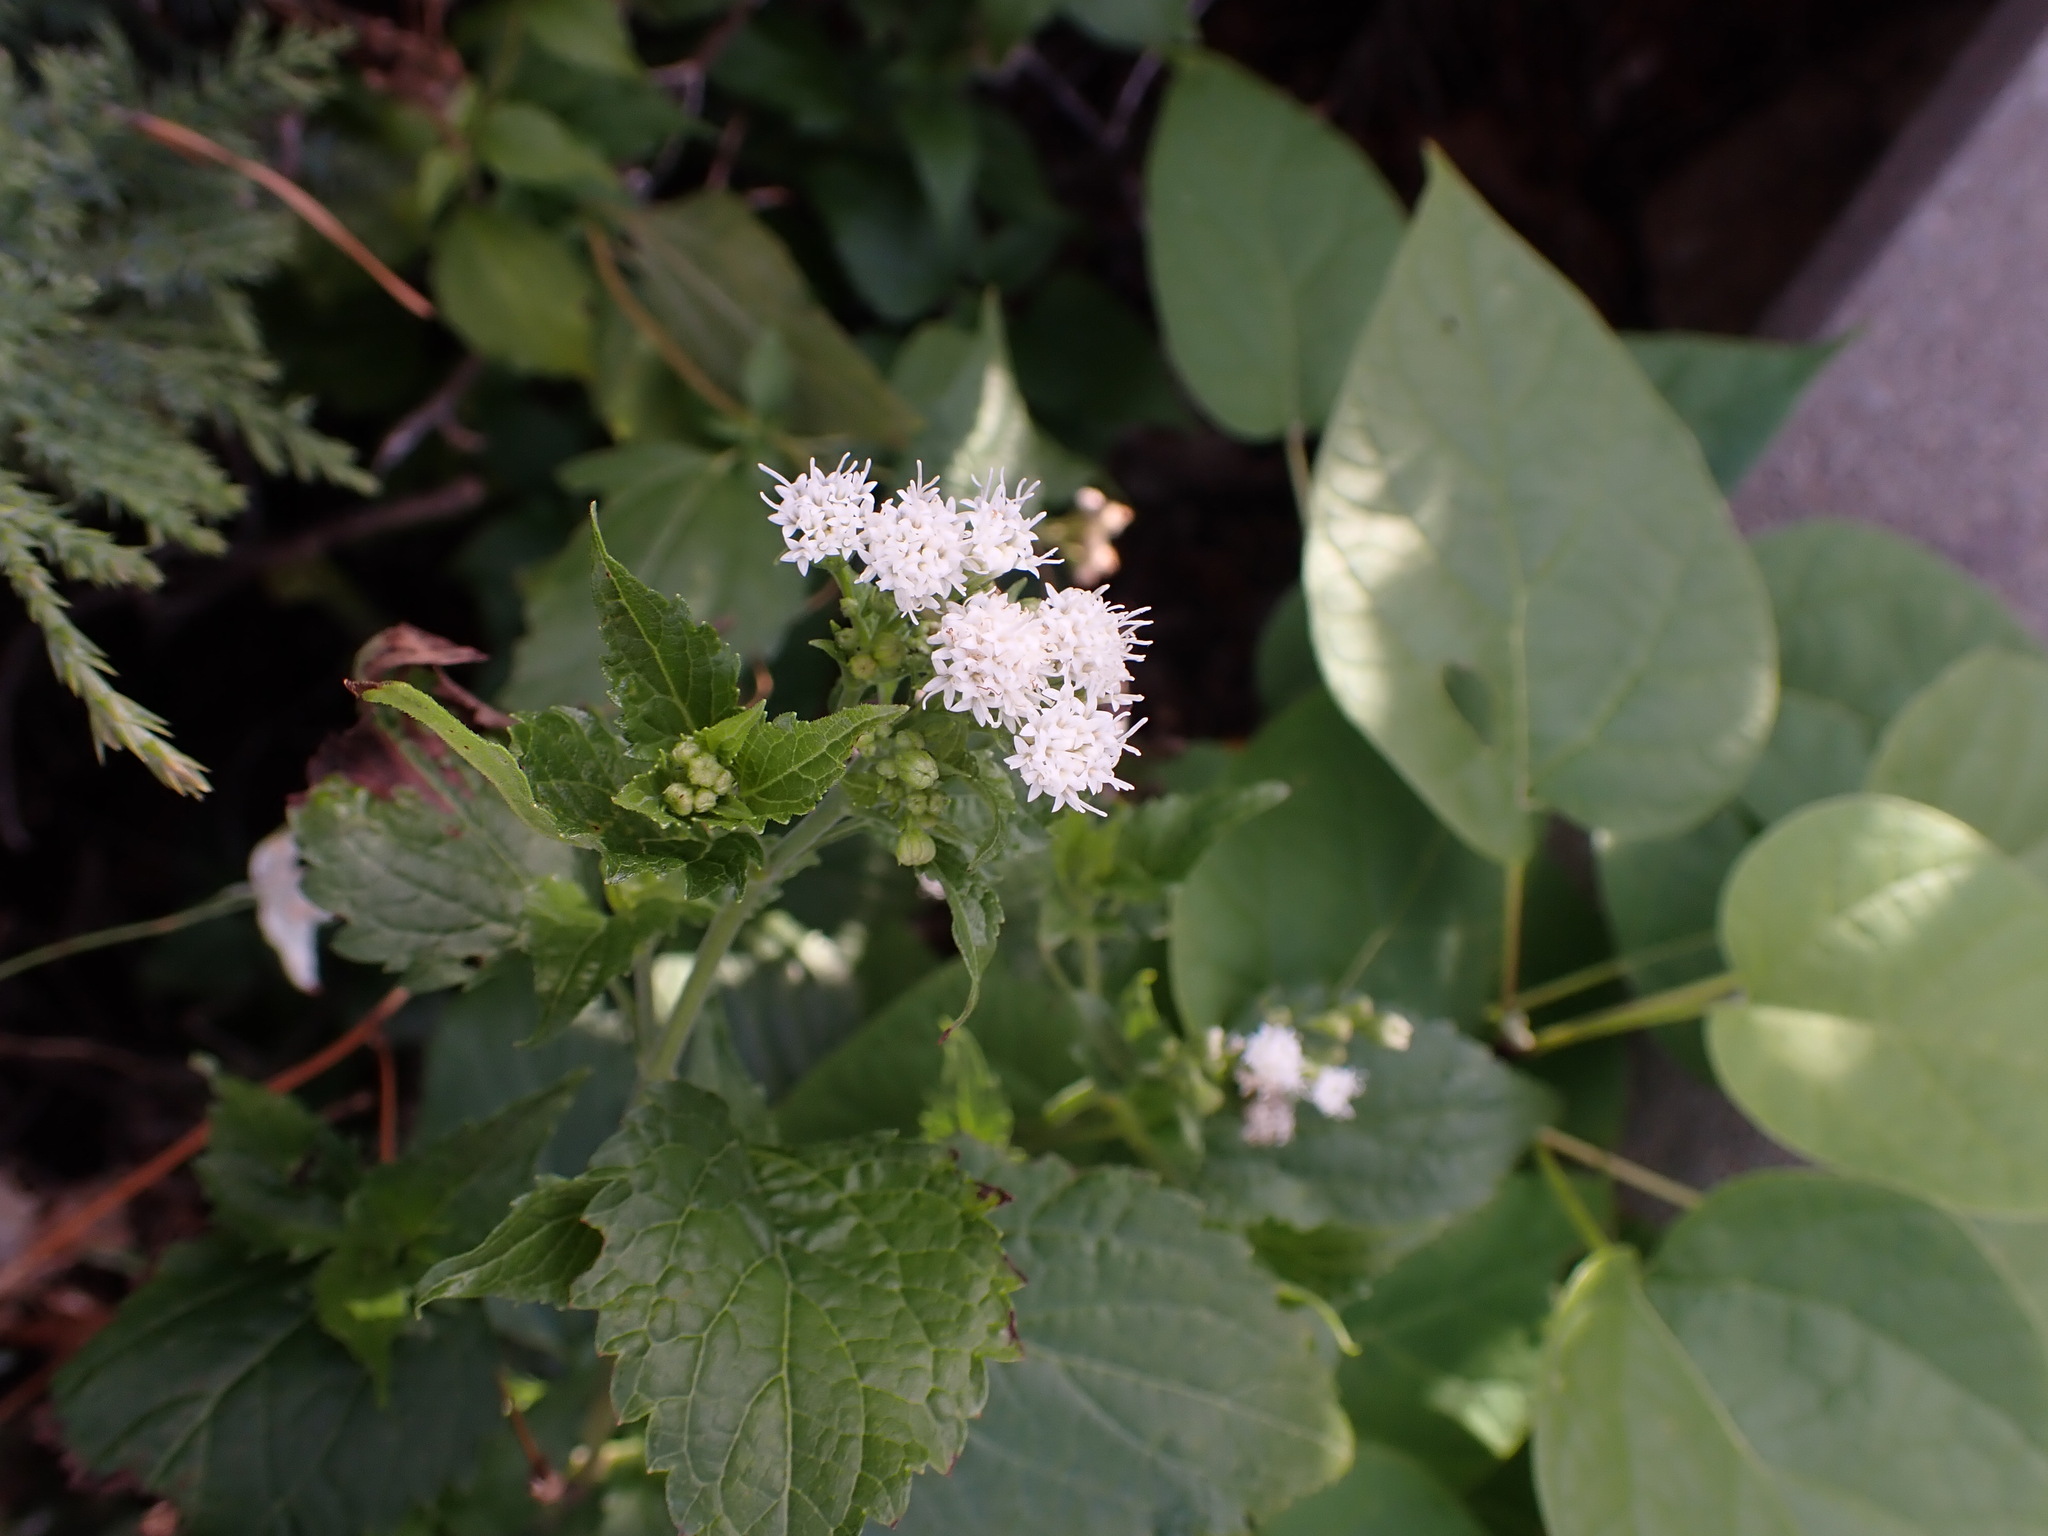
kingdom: Plantae
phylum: Tracheophyta
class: Magnoliopsida
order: Asterales
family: Asteraceae
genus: Ageratina
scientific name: Ageratina altissima
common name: White snakeroot
